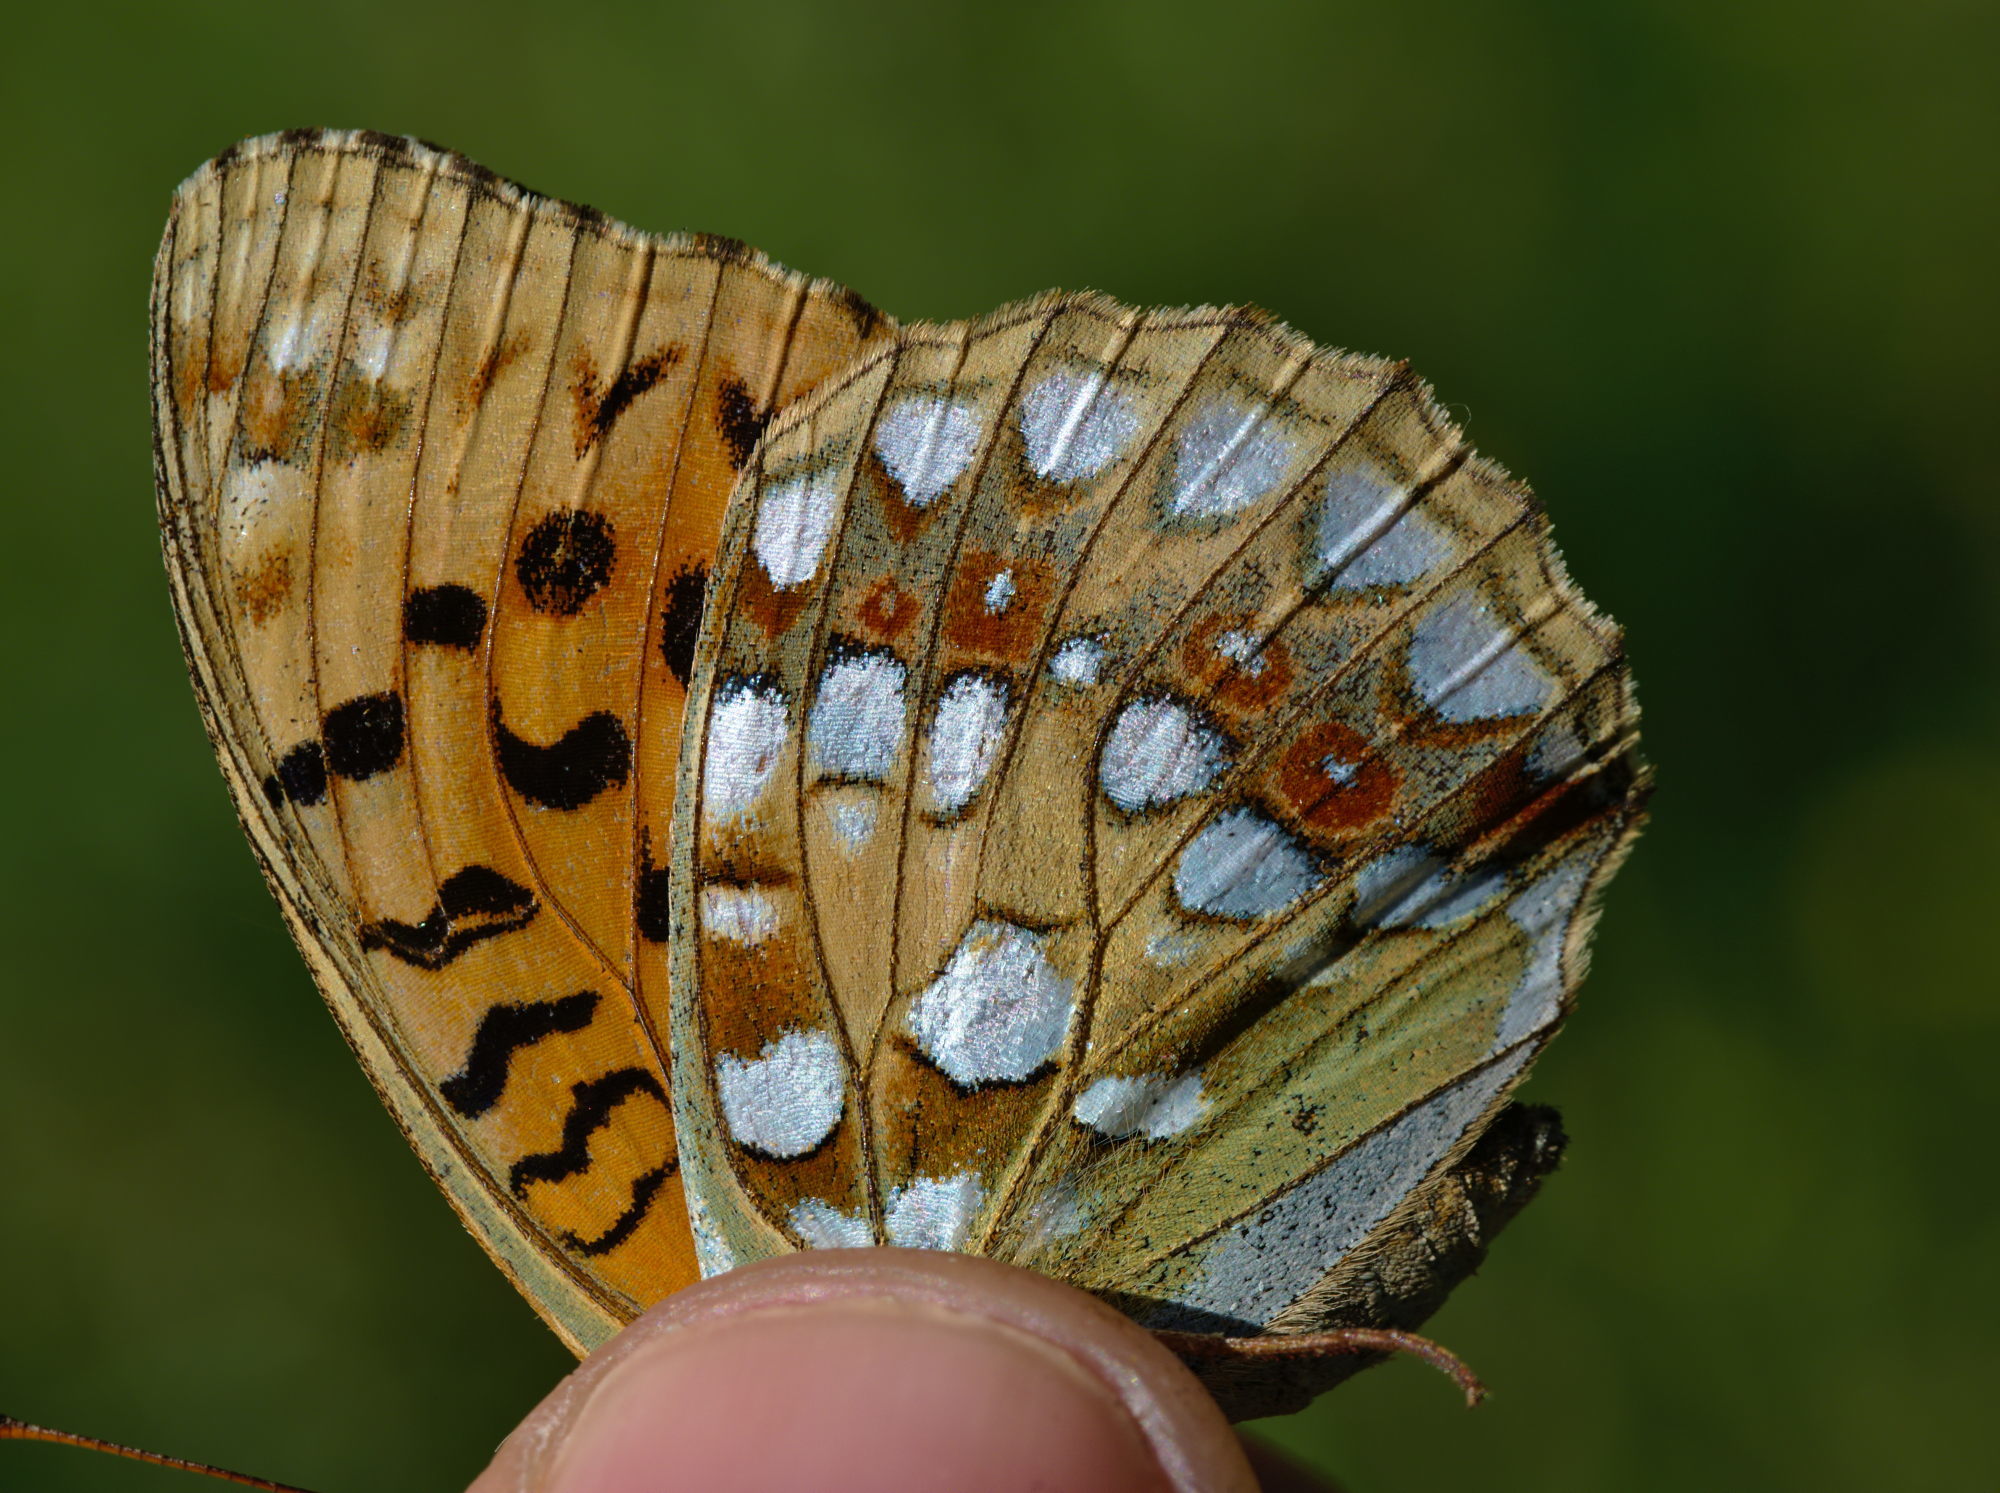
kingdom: Animalia
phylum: Arthropoda
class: Insecta
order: Lepidoptera
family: Nymphalidae
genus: Fabriciana
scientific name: Fabriciana adippe
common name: High brown fritillary
